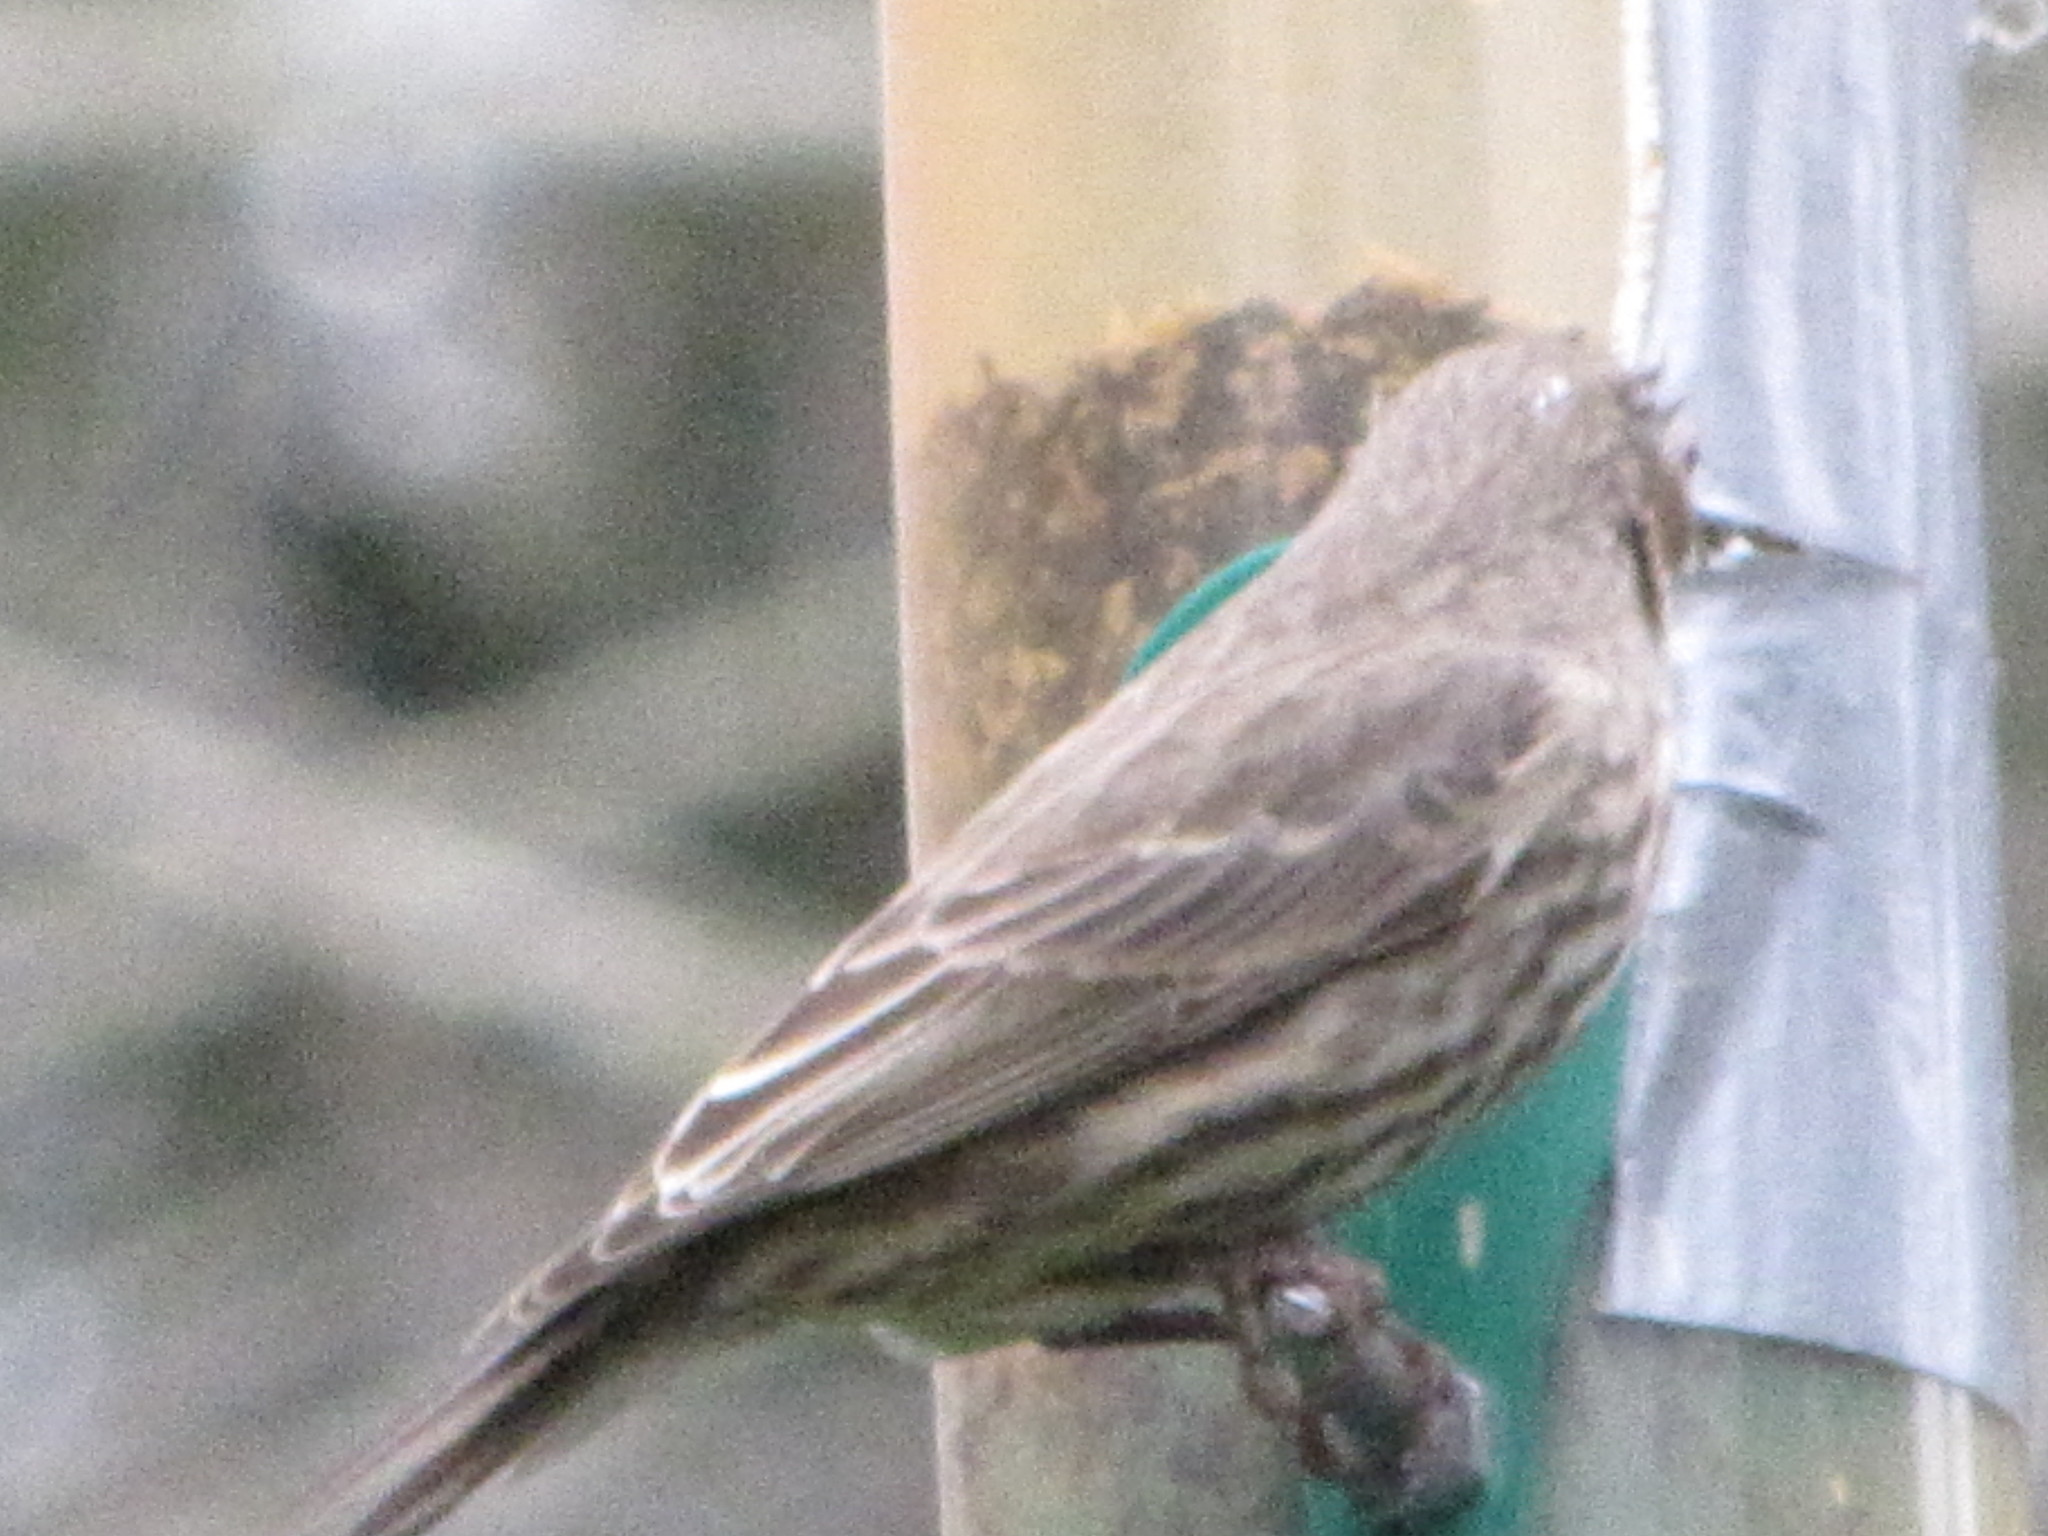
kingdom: Animalia
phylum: Chordata
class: Aves
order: Passeriformes
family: Fringillidae
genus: Haemorhous
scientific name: Haemorhous mexicanus
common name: House finch
